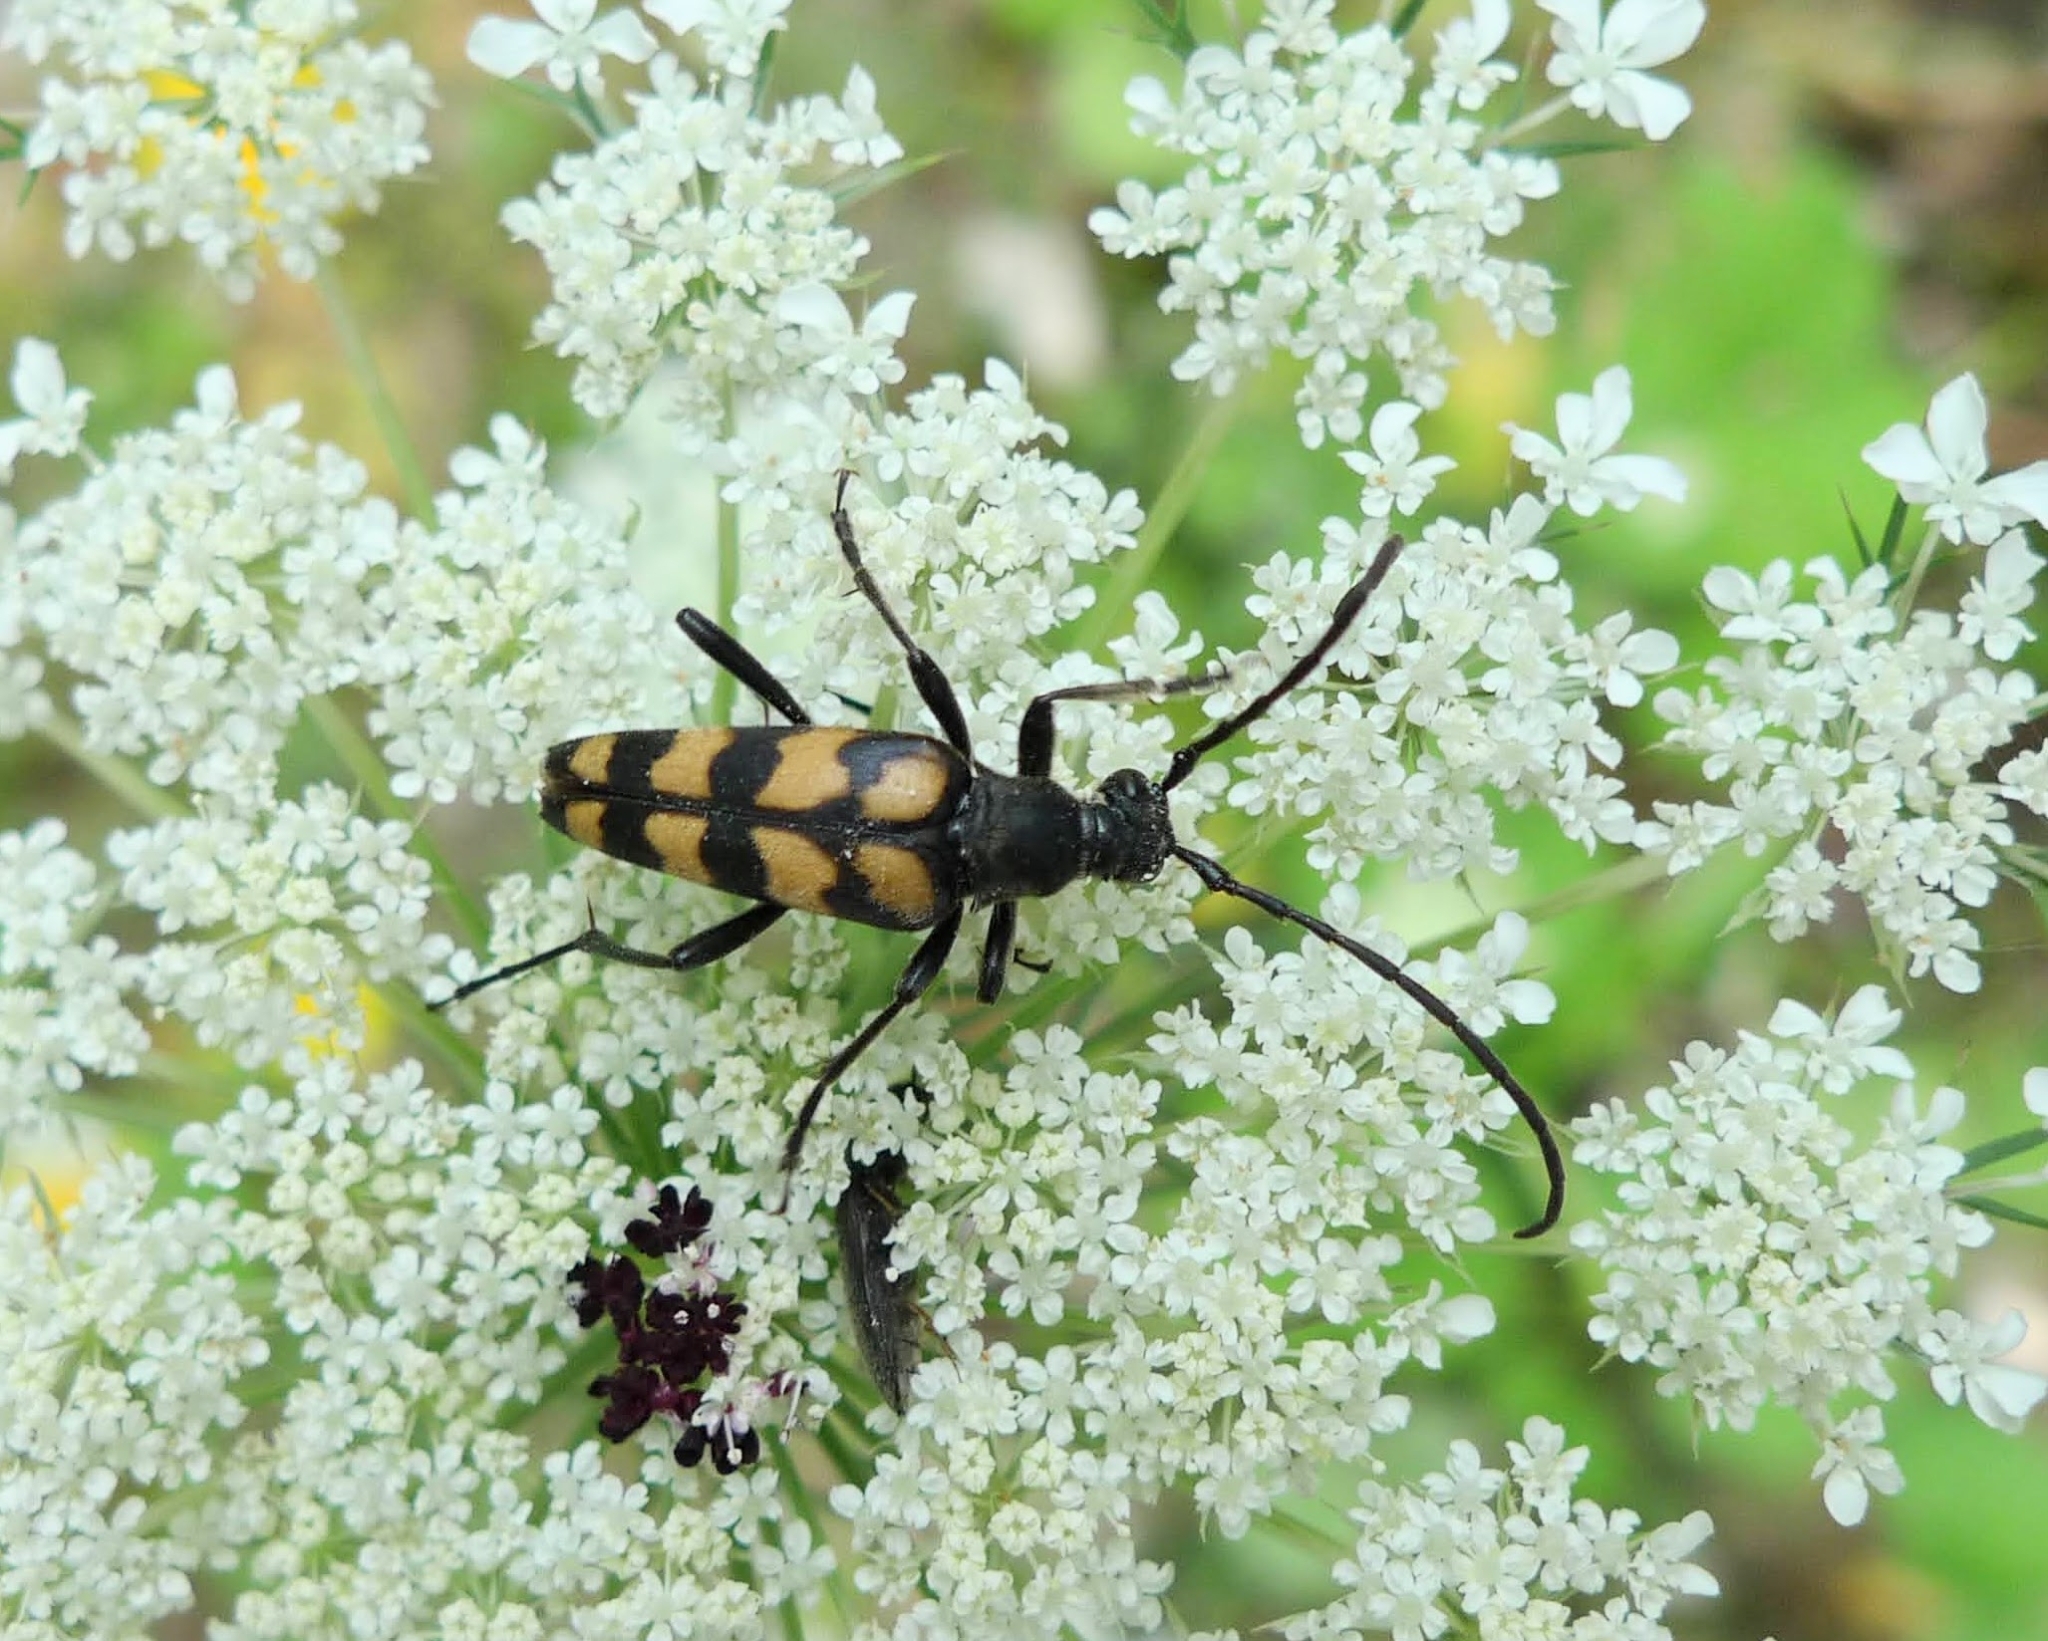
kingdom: Animalia
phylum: Arthropoda
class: Insecta
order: Coleoptera
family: Cerambycidae
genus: Leptura
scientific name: Leptura quadrifasciata
